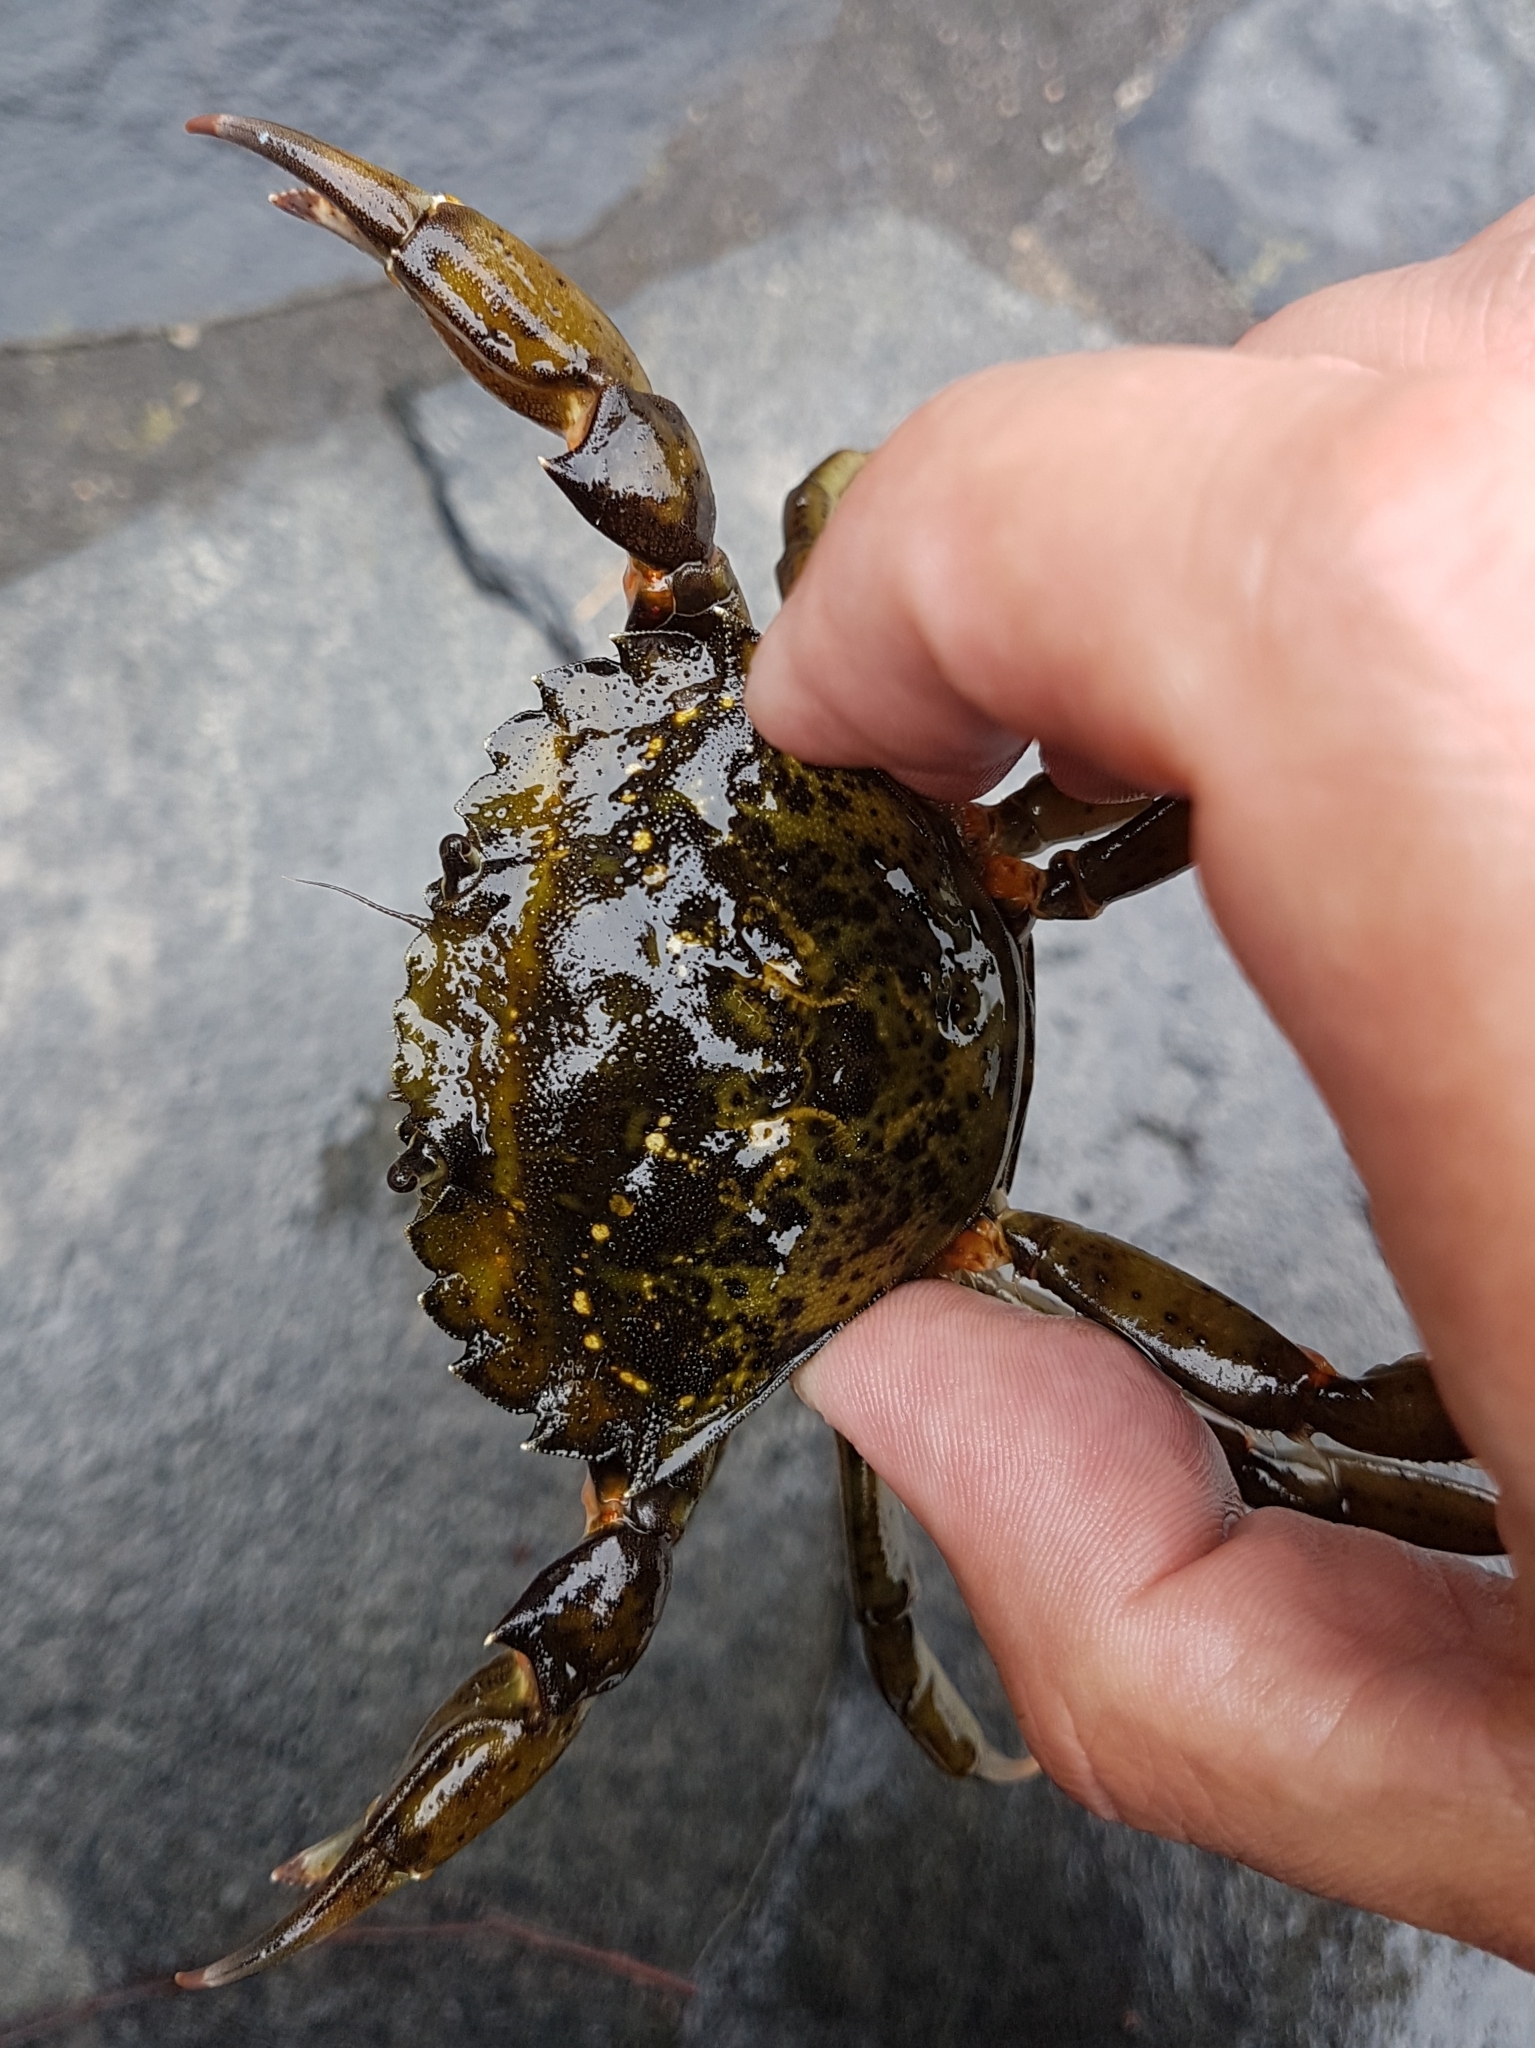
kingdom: Animalia
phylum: Arthropoda
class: Malacostraca
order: Decapoda
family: Carcinidae
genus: Carcinus
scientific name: Carcinus maenas
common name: European green crab
